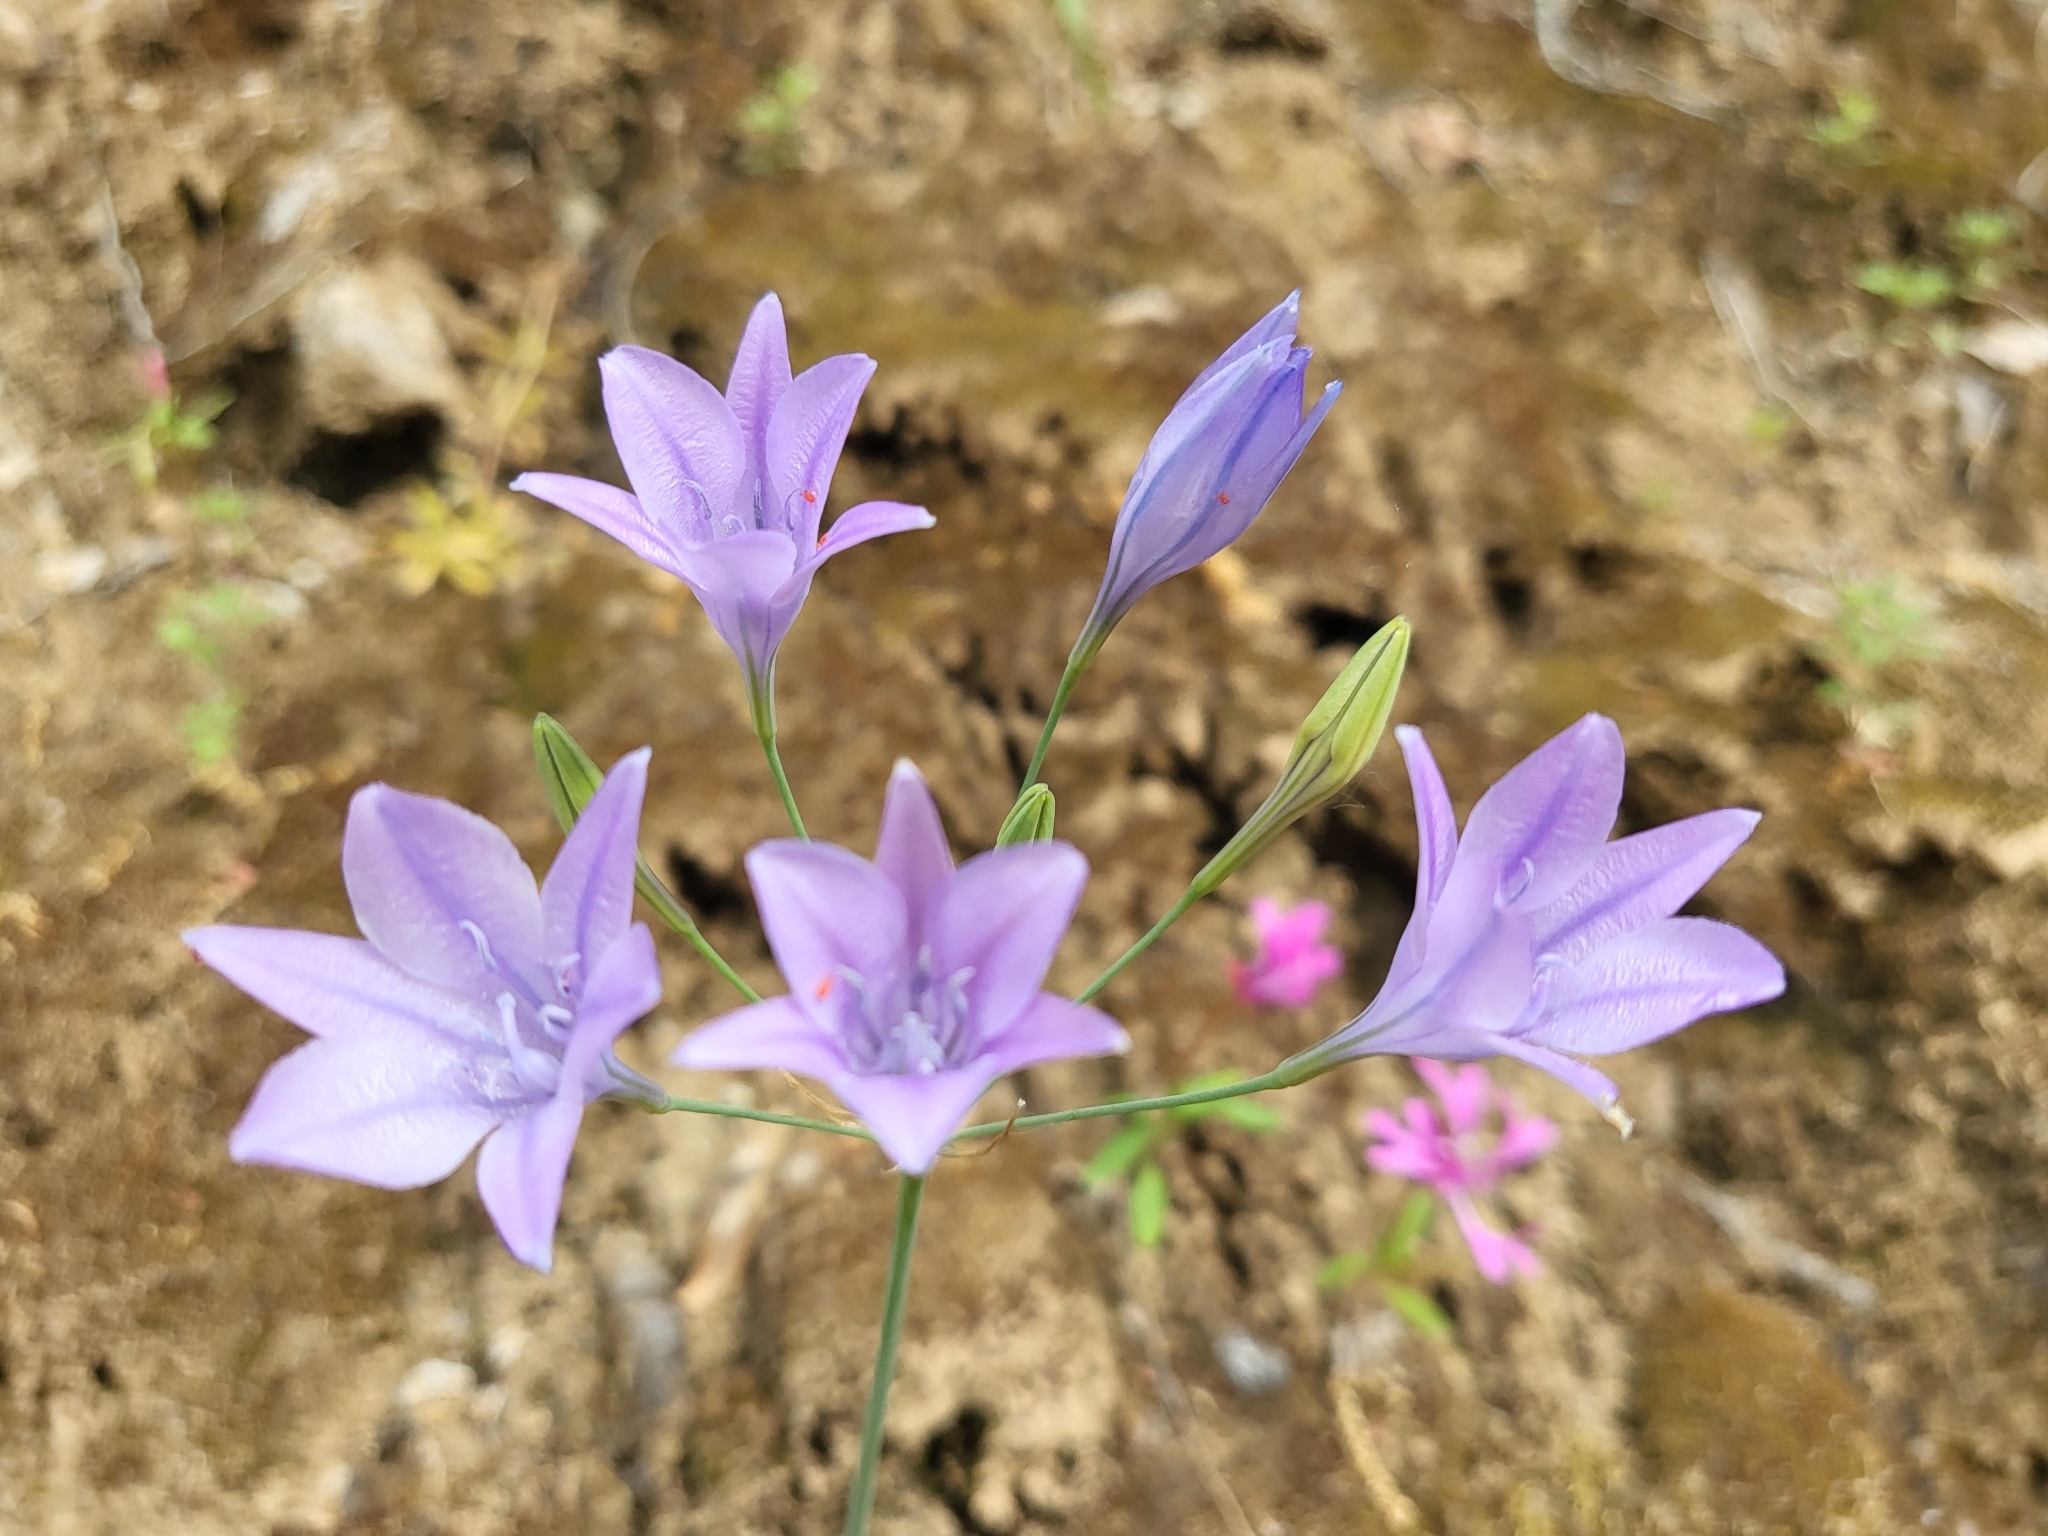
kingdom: Plantae
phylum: Tracheophyta
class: Liliopsida
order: Asparagales
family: Asparagaceae
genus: Triteleia
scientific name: Triteleia laxa
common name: Triplet-lily
